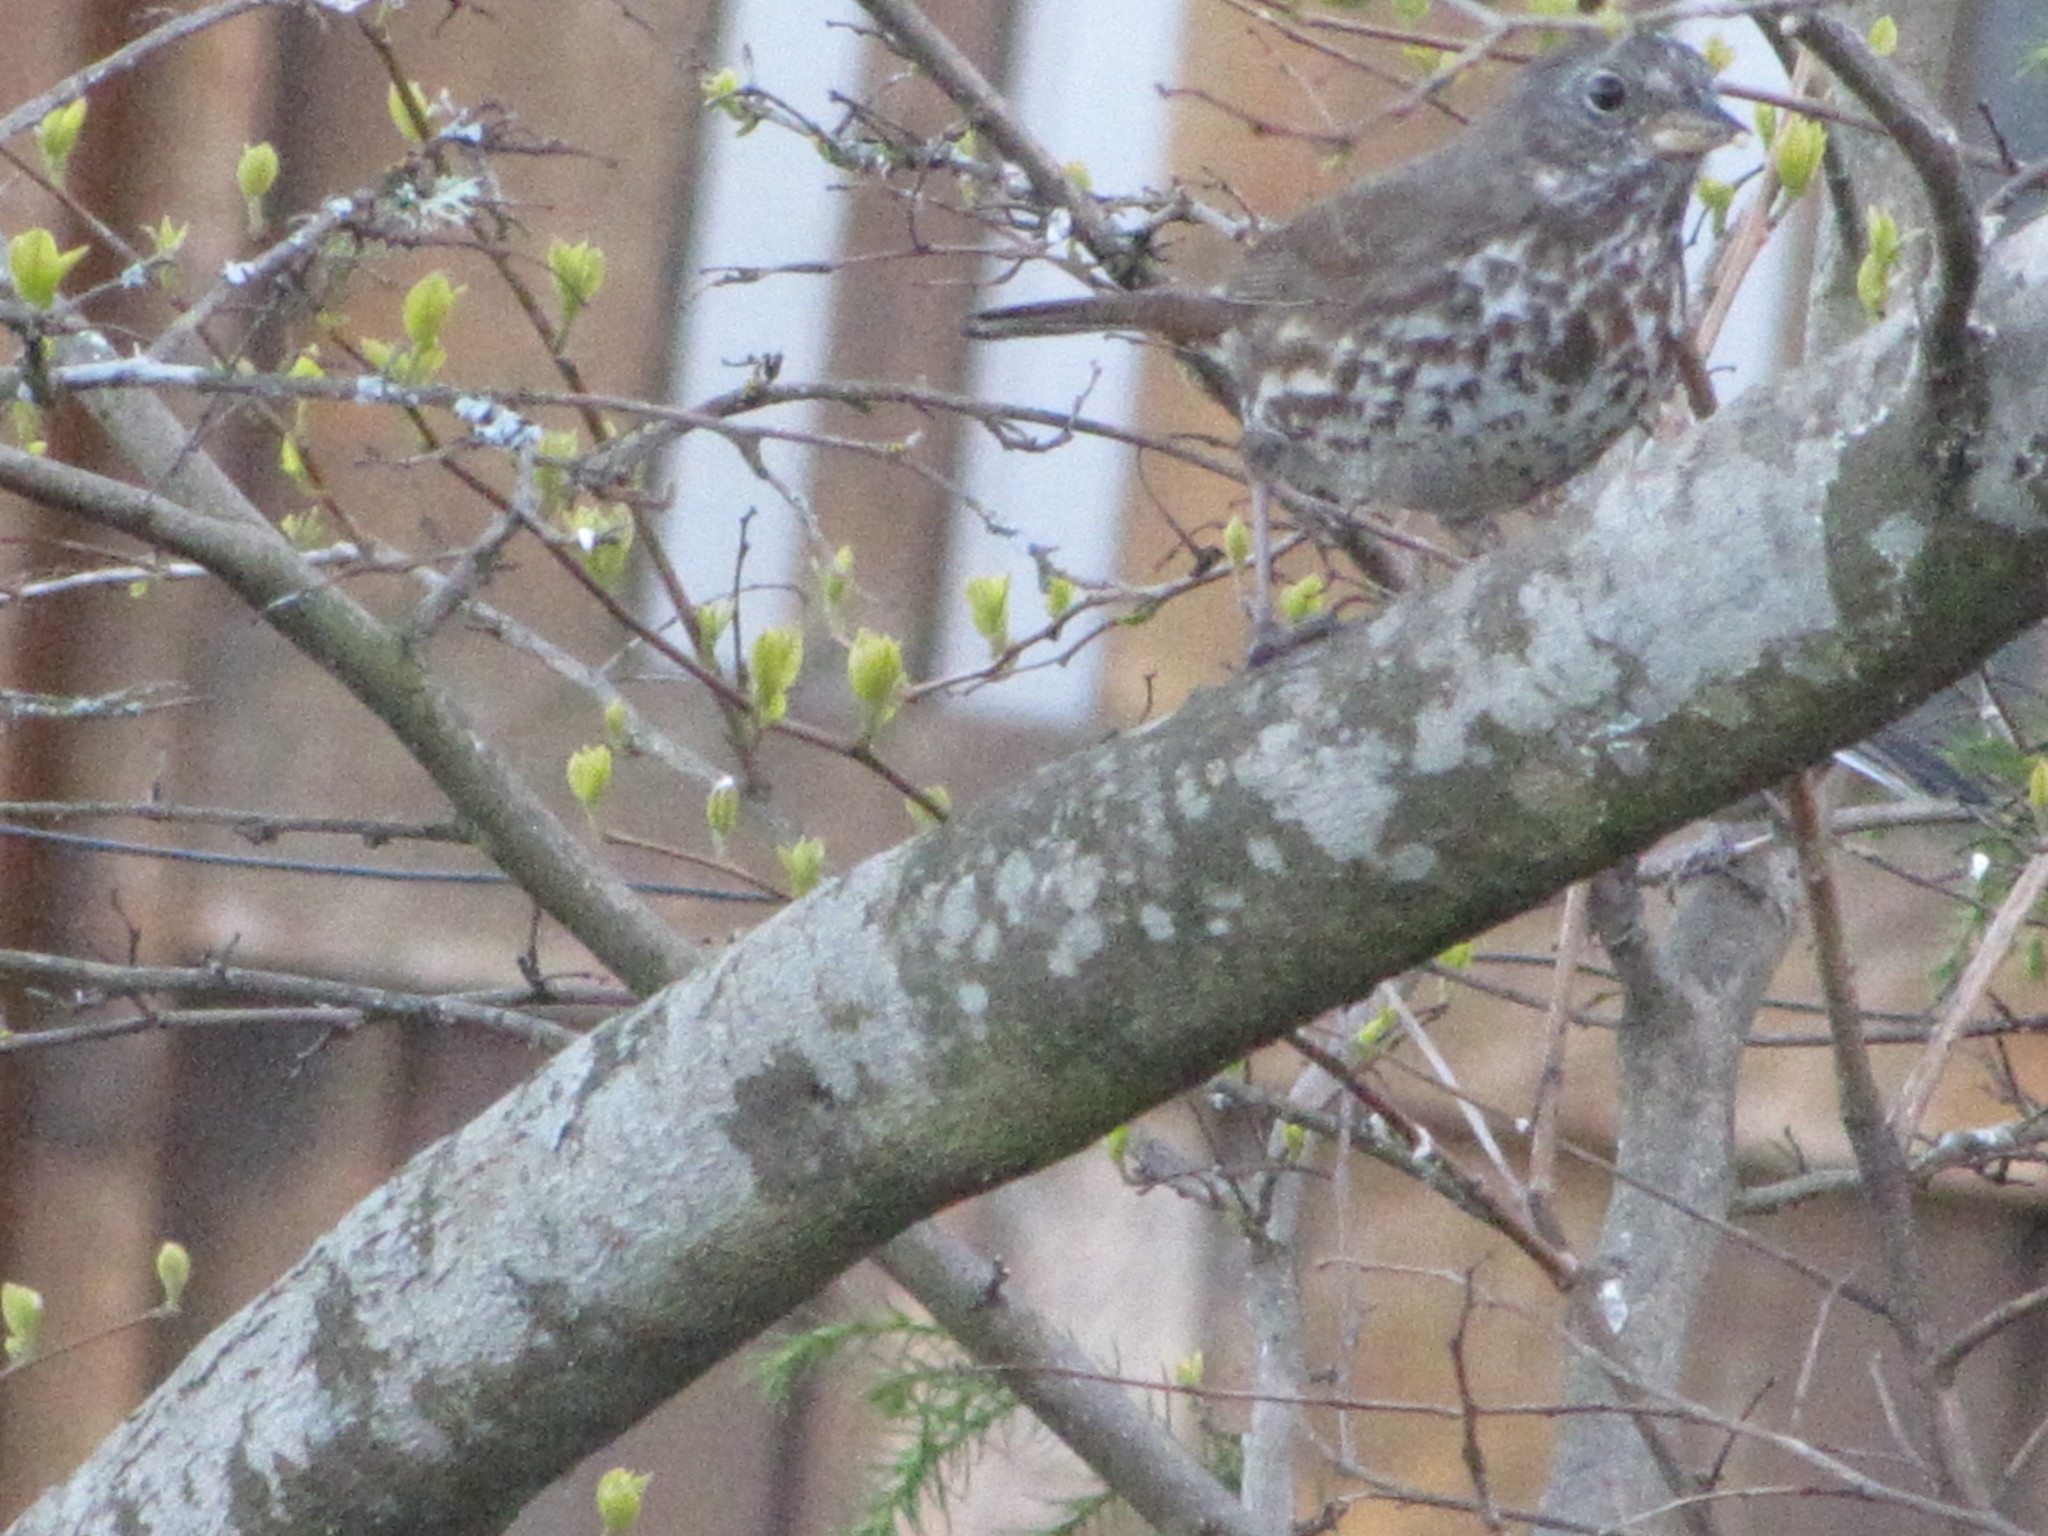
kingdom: Animalia
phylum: Chordata
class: Aves
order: Passeriformes
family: Passerellidae
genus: Passerella
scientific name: Passerella iliaca
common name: Fox sparrow
